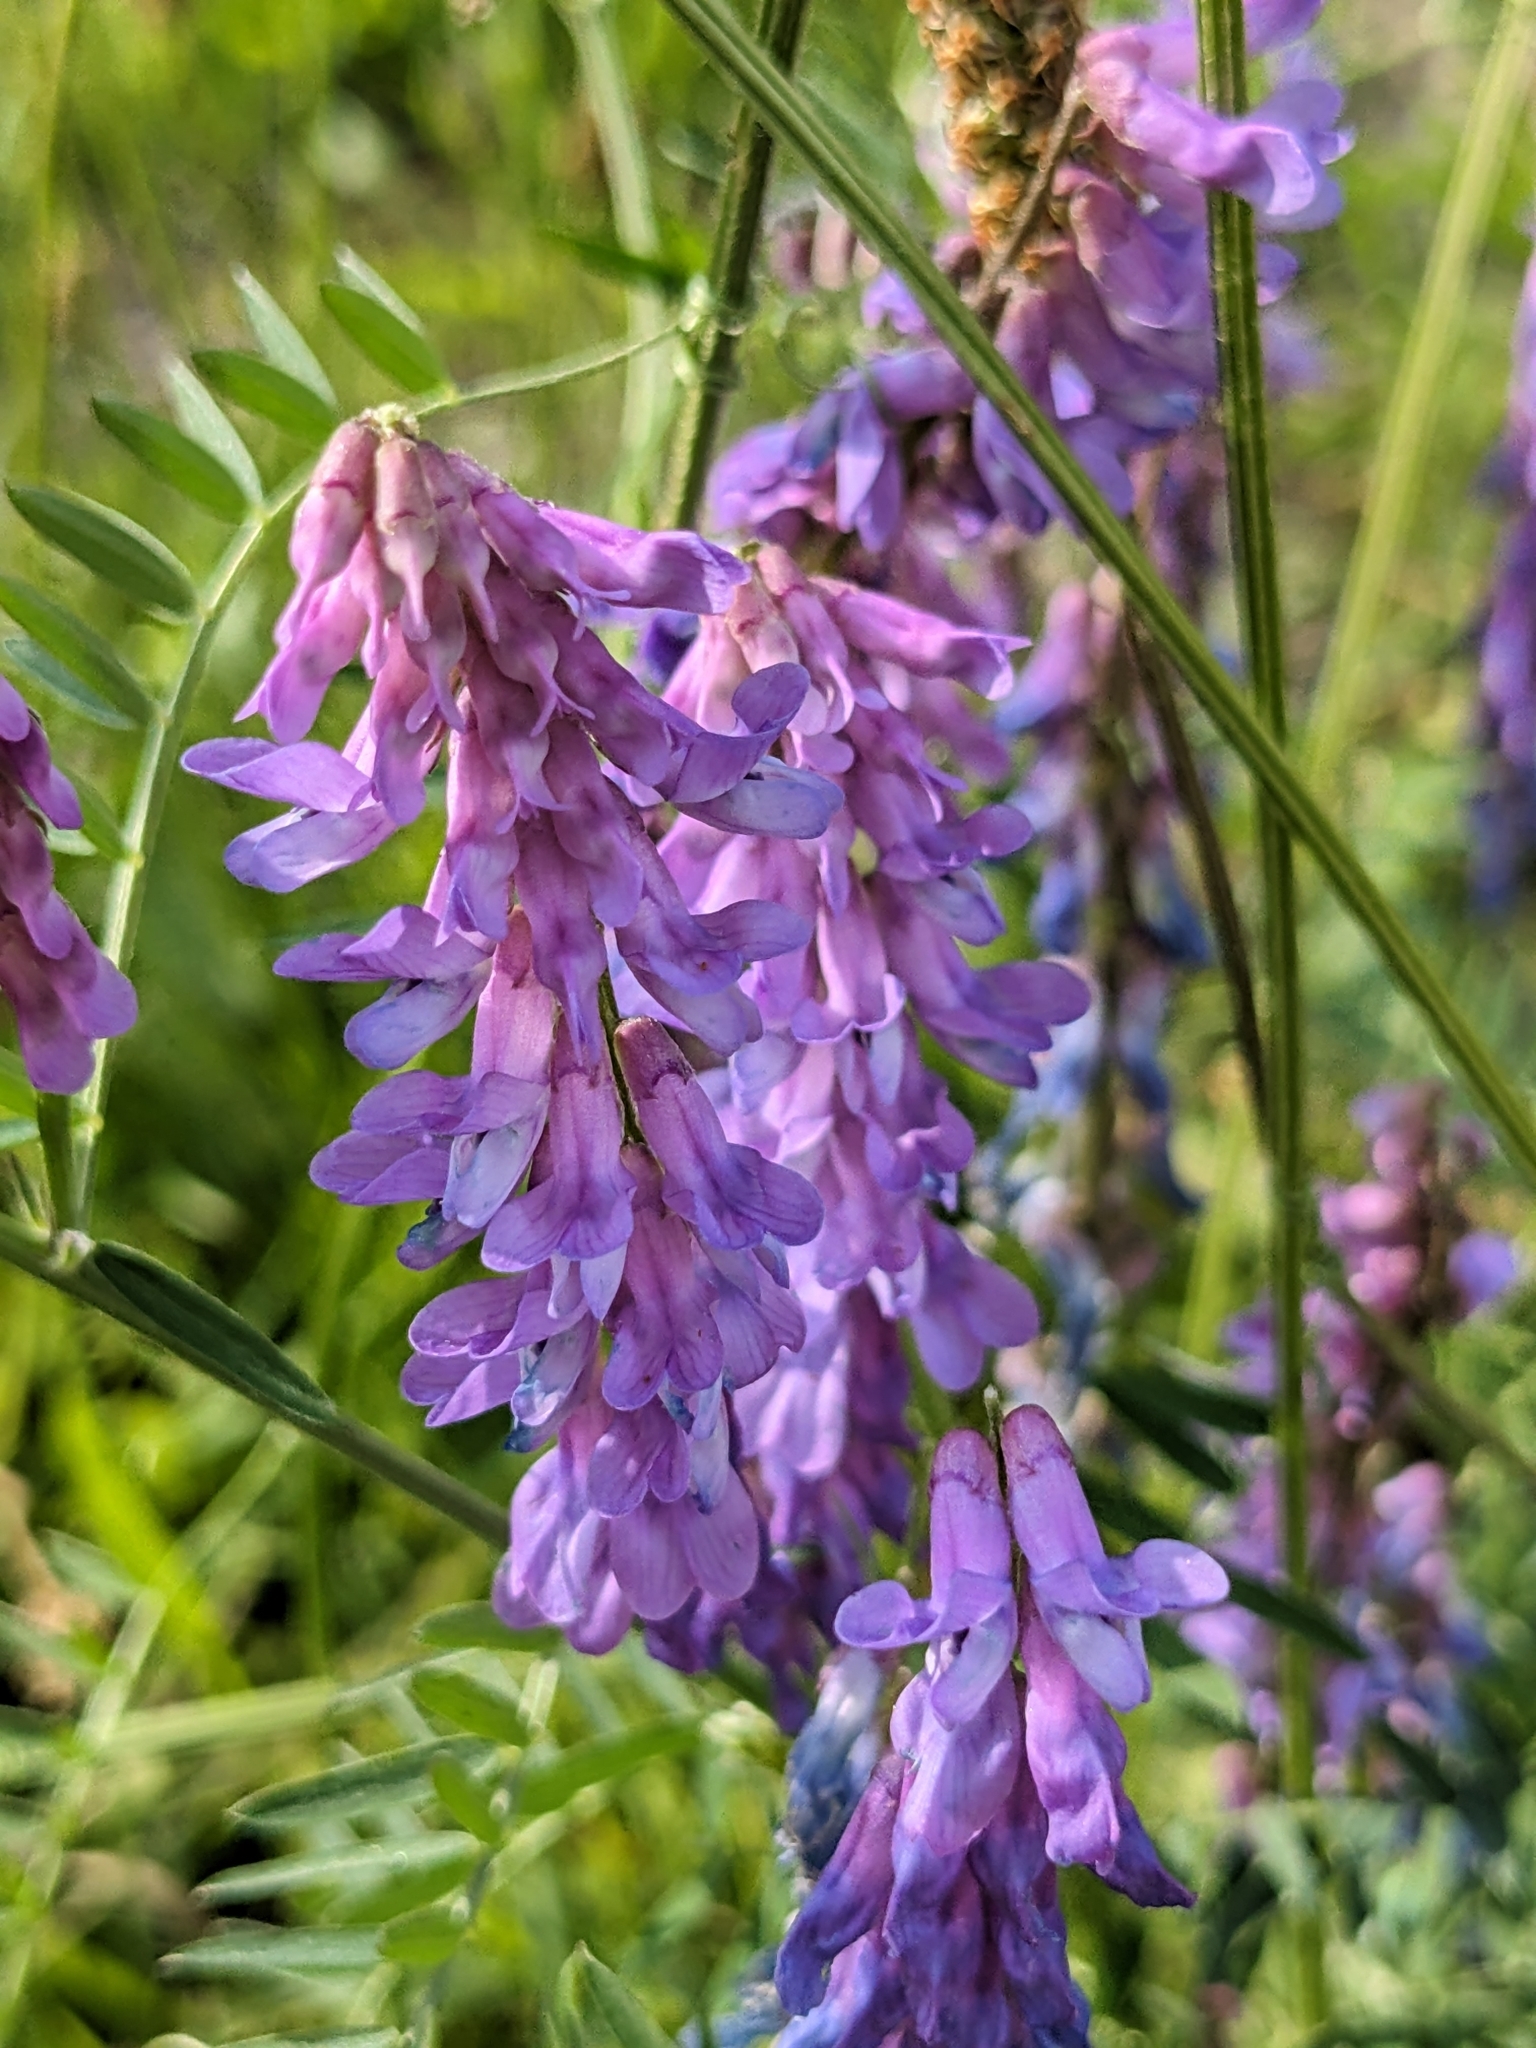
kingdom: Plantae
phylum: Tracheophyta
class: Magnoliopsida
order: Fabales
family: Fabaceae
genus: Vicia
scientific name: Vicia cracca
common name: Bird vetch
